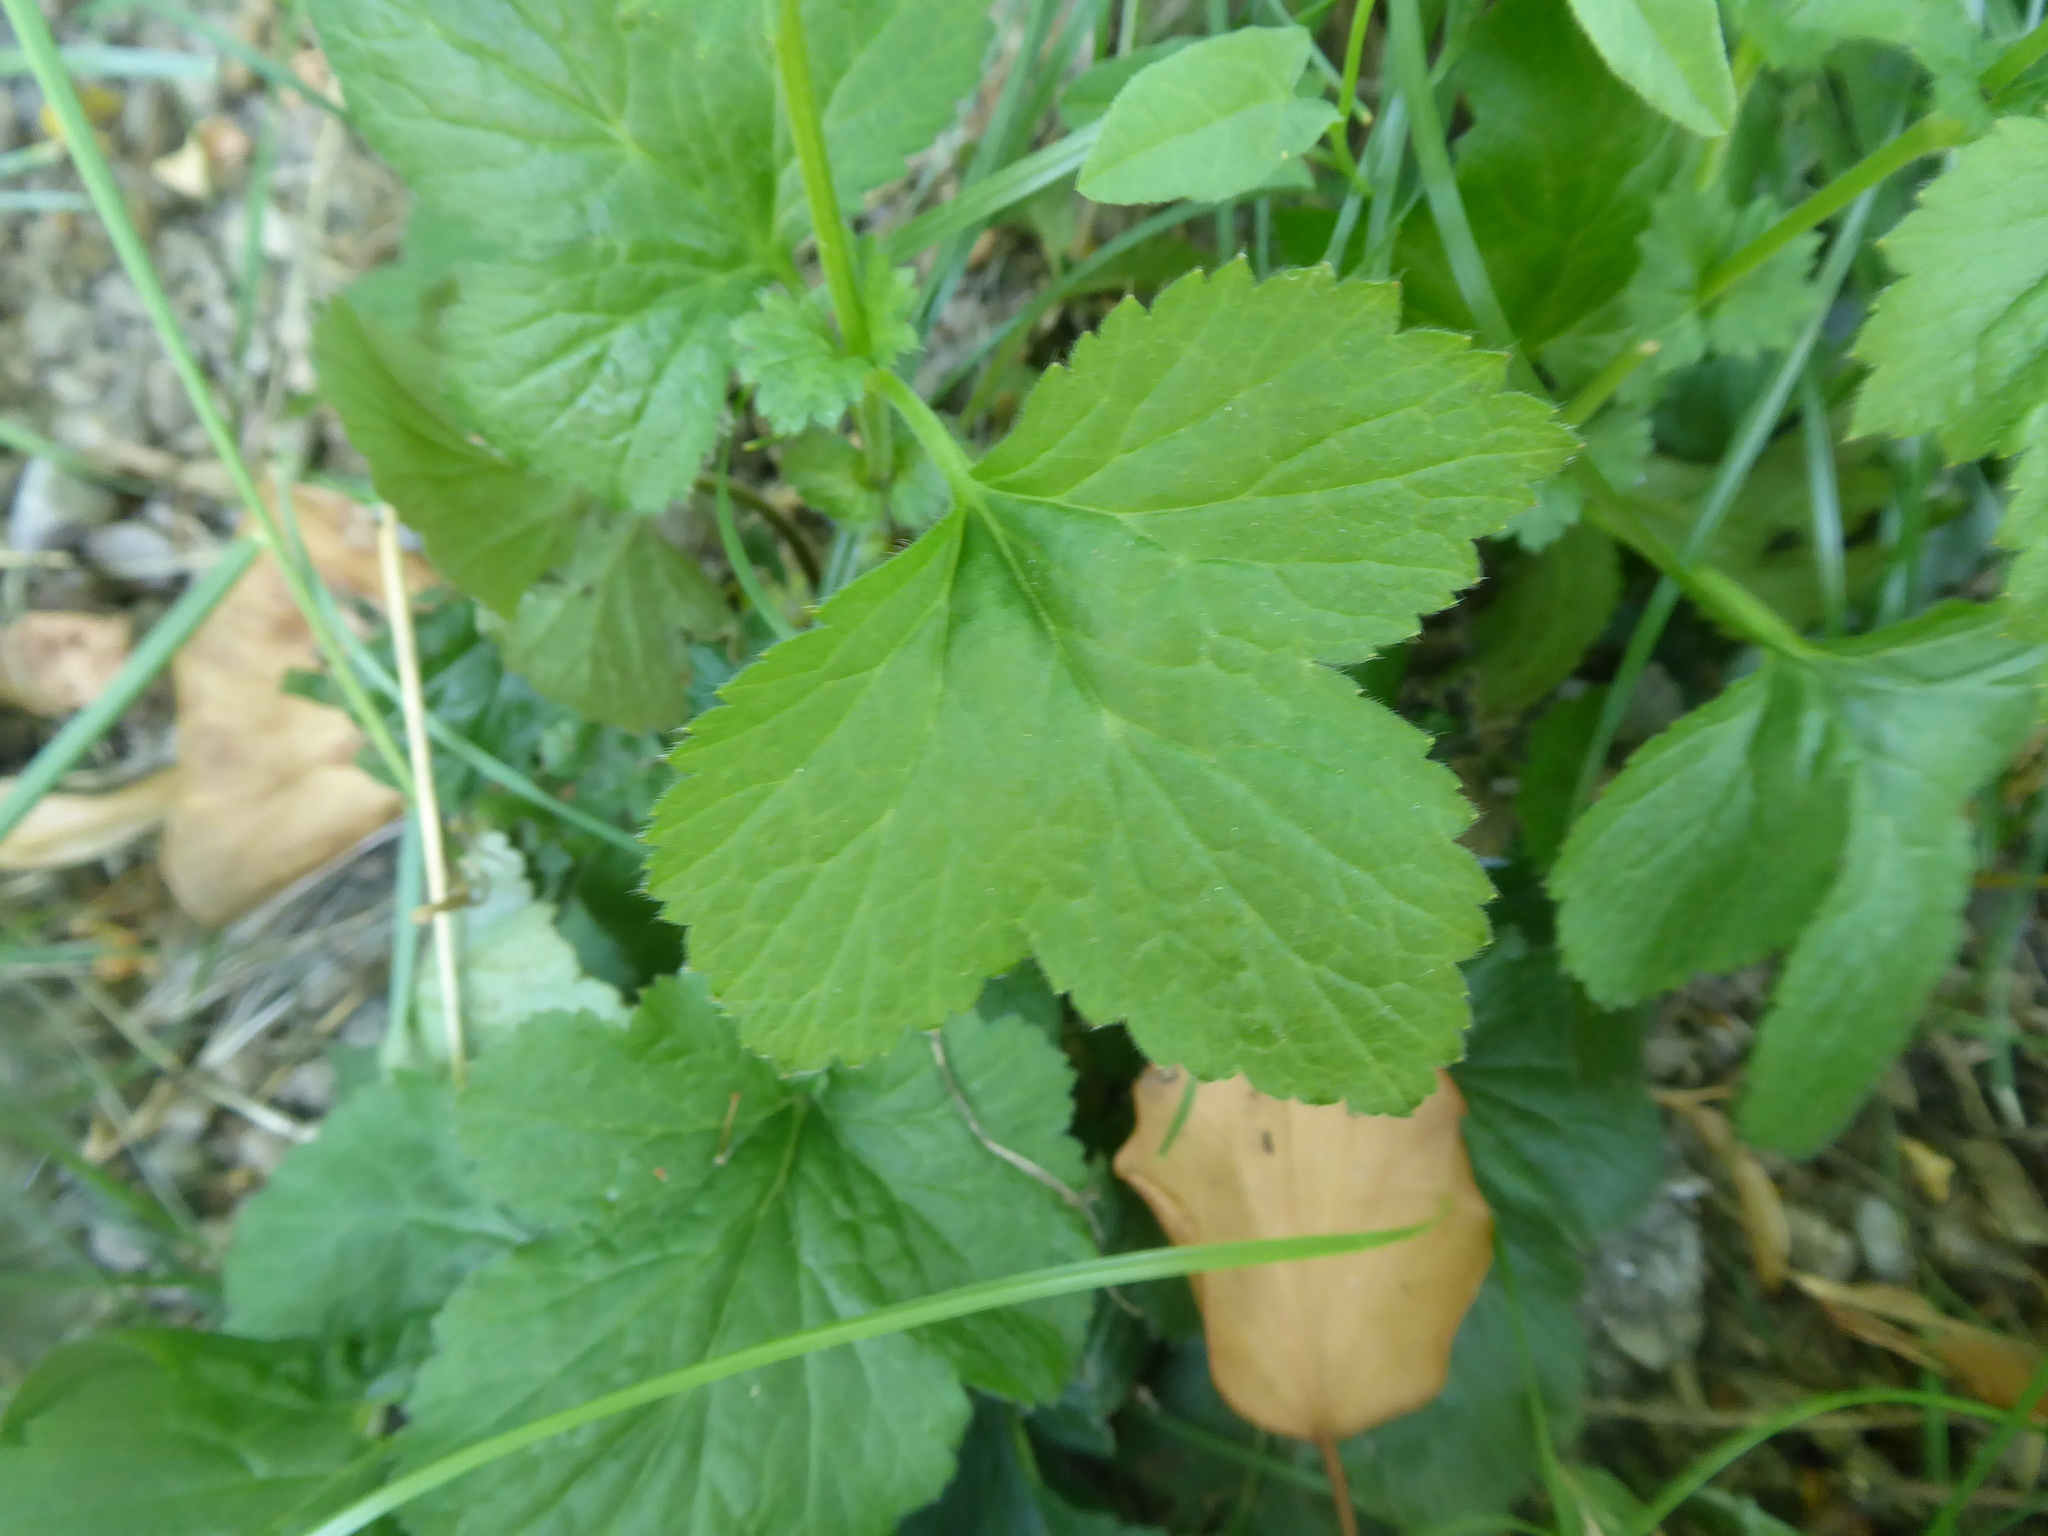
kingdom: Plantae
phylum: Tracheophyta
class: Magnoliopsida
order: Rosales
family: Rosaceae
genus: Geum
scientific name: Geum urbanum
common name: Wood avens
